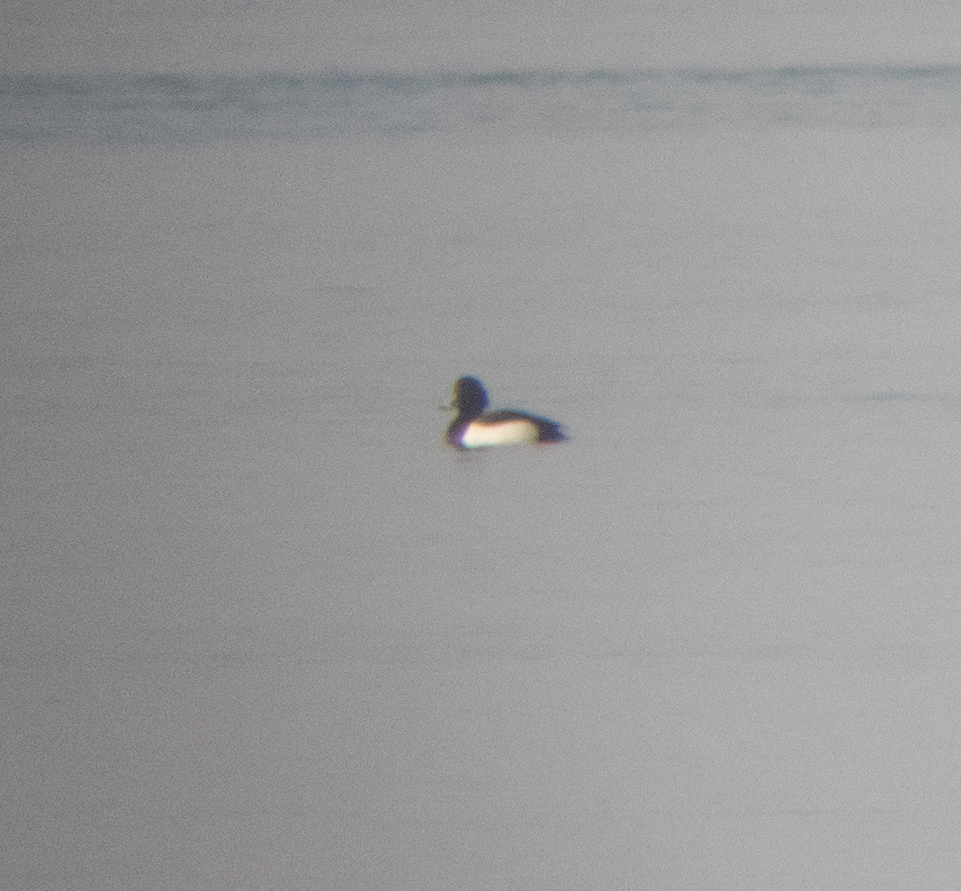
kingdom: Animalia
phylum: Chordata
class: Aves
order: Anseriformes
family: Anatidae
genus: Aythya
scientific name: Aythya fuligula
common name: Tufted duck
